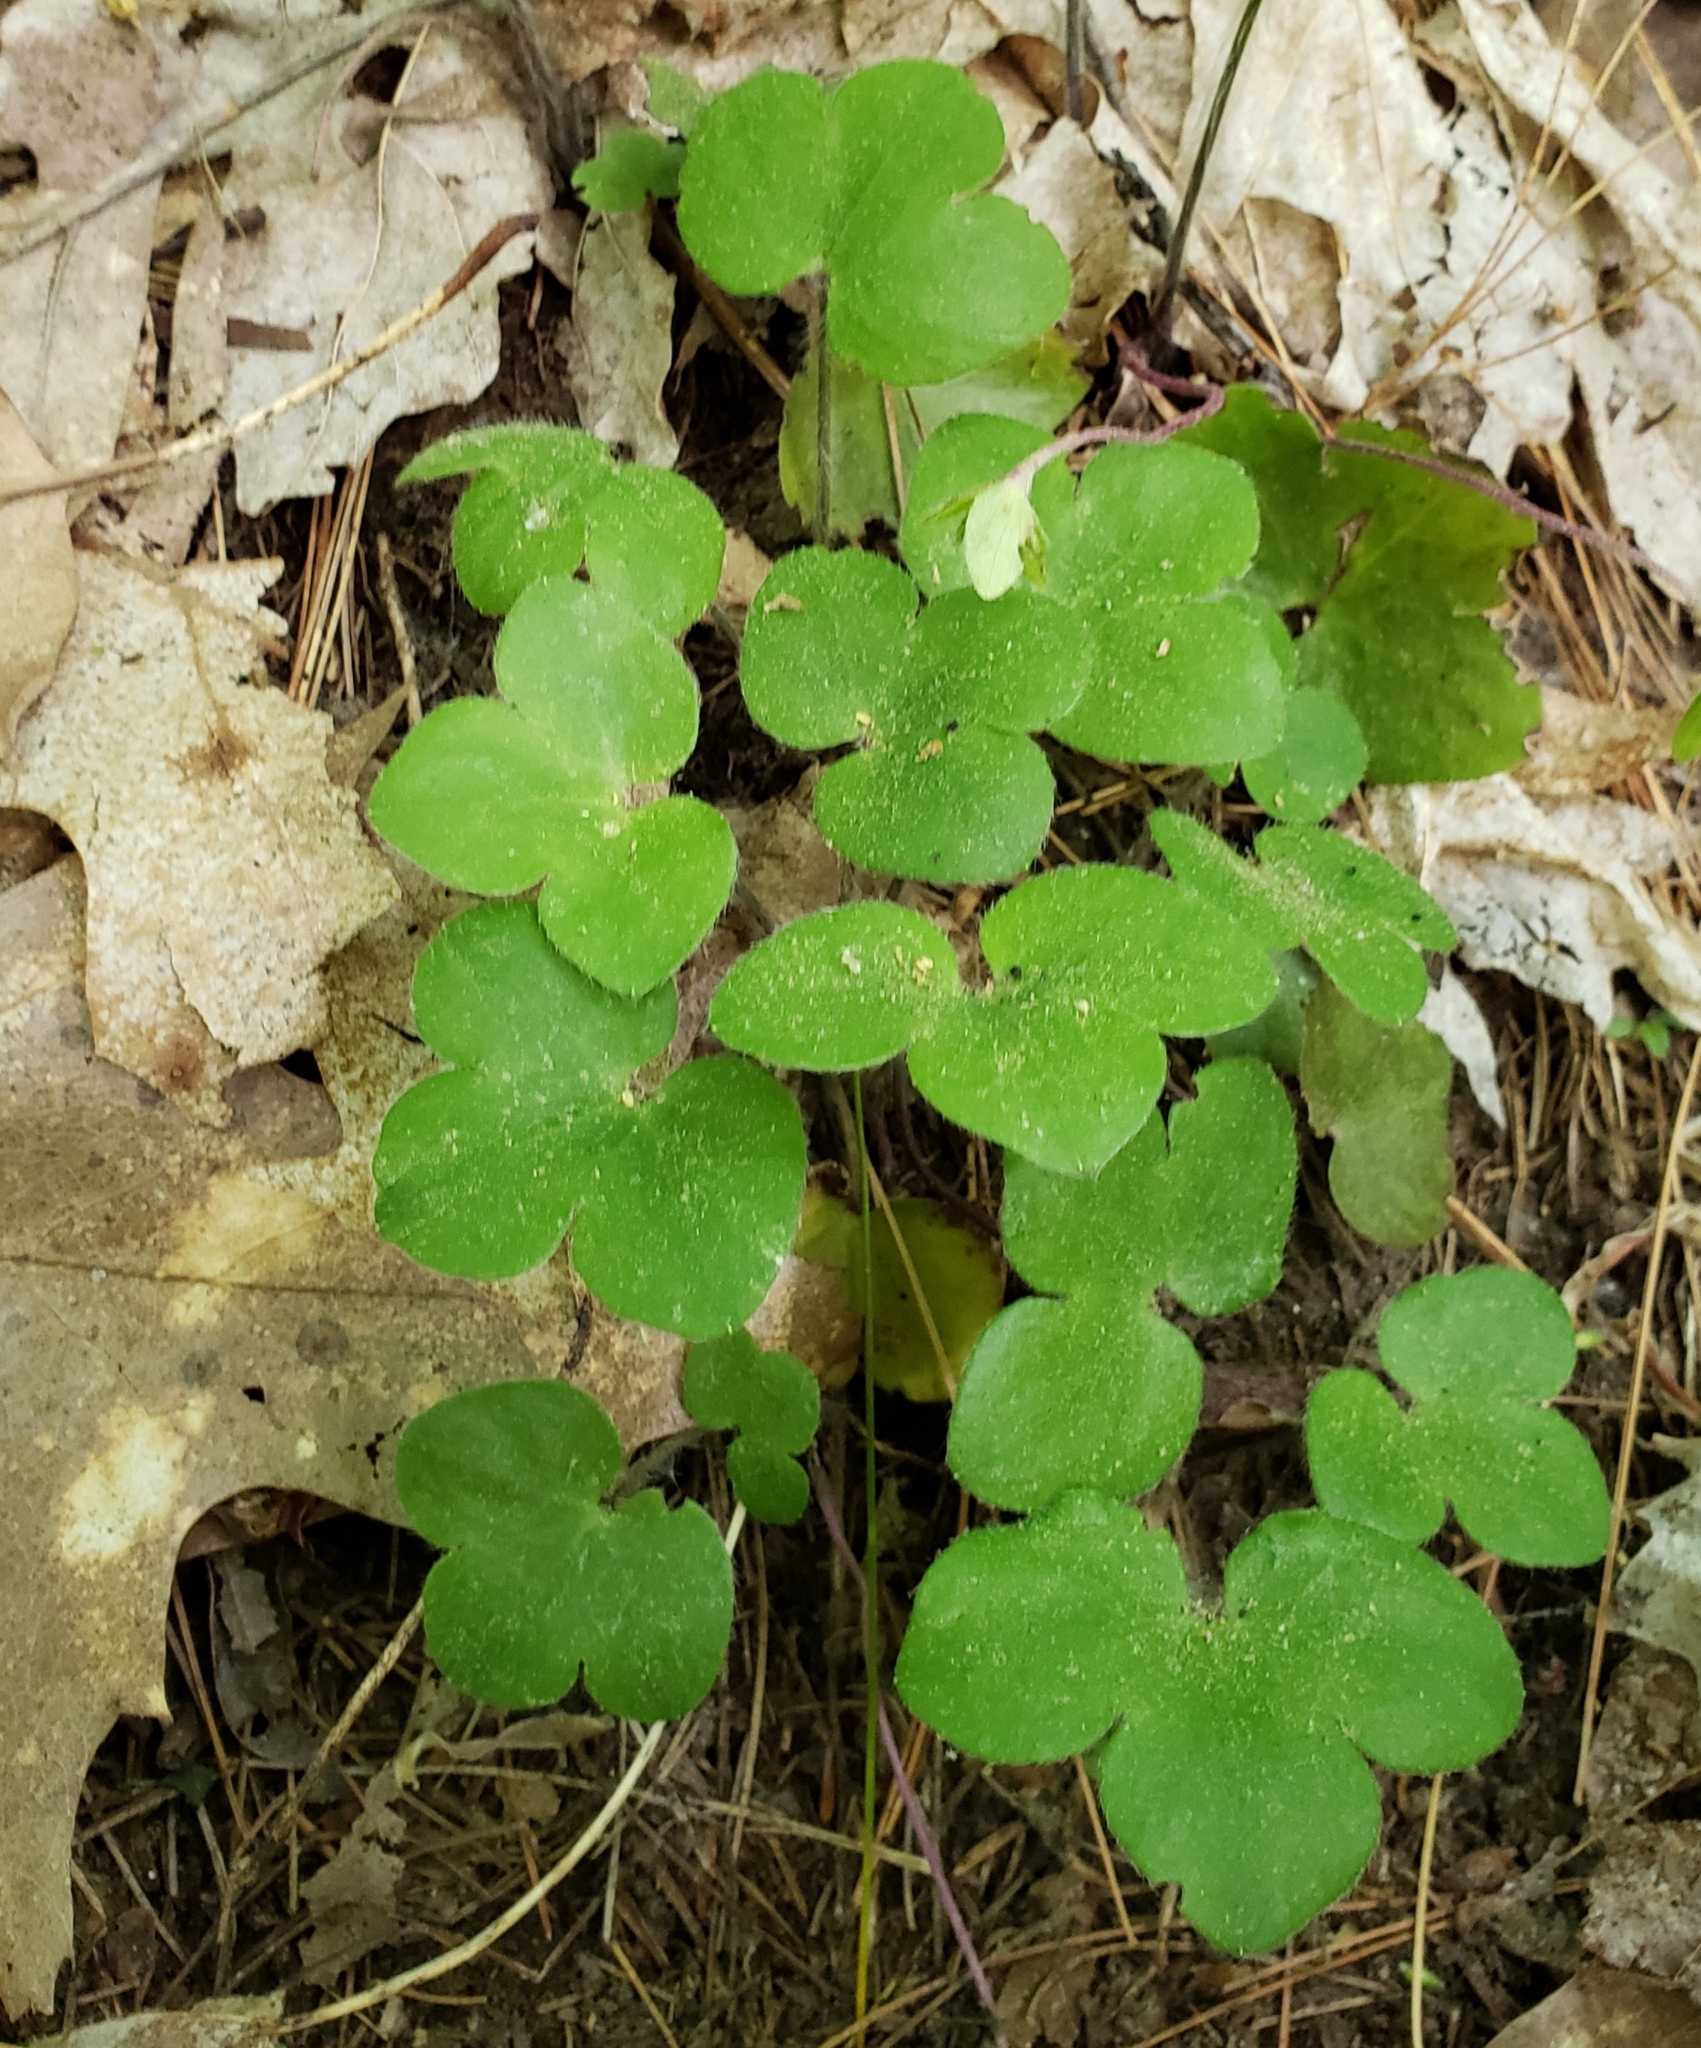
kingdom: Plantae
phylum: Tracheophyta
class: Magnoliopsida
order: Ranunculales
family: Ranunculaceae
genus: Hepatica
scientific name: Hepatica americana
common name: American hepatica
